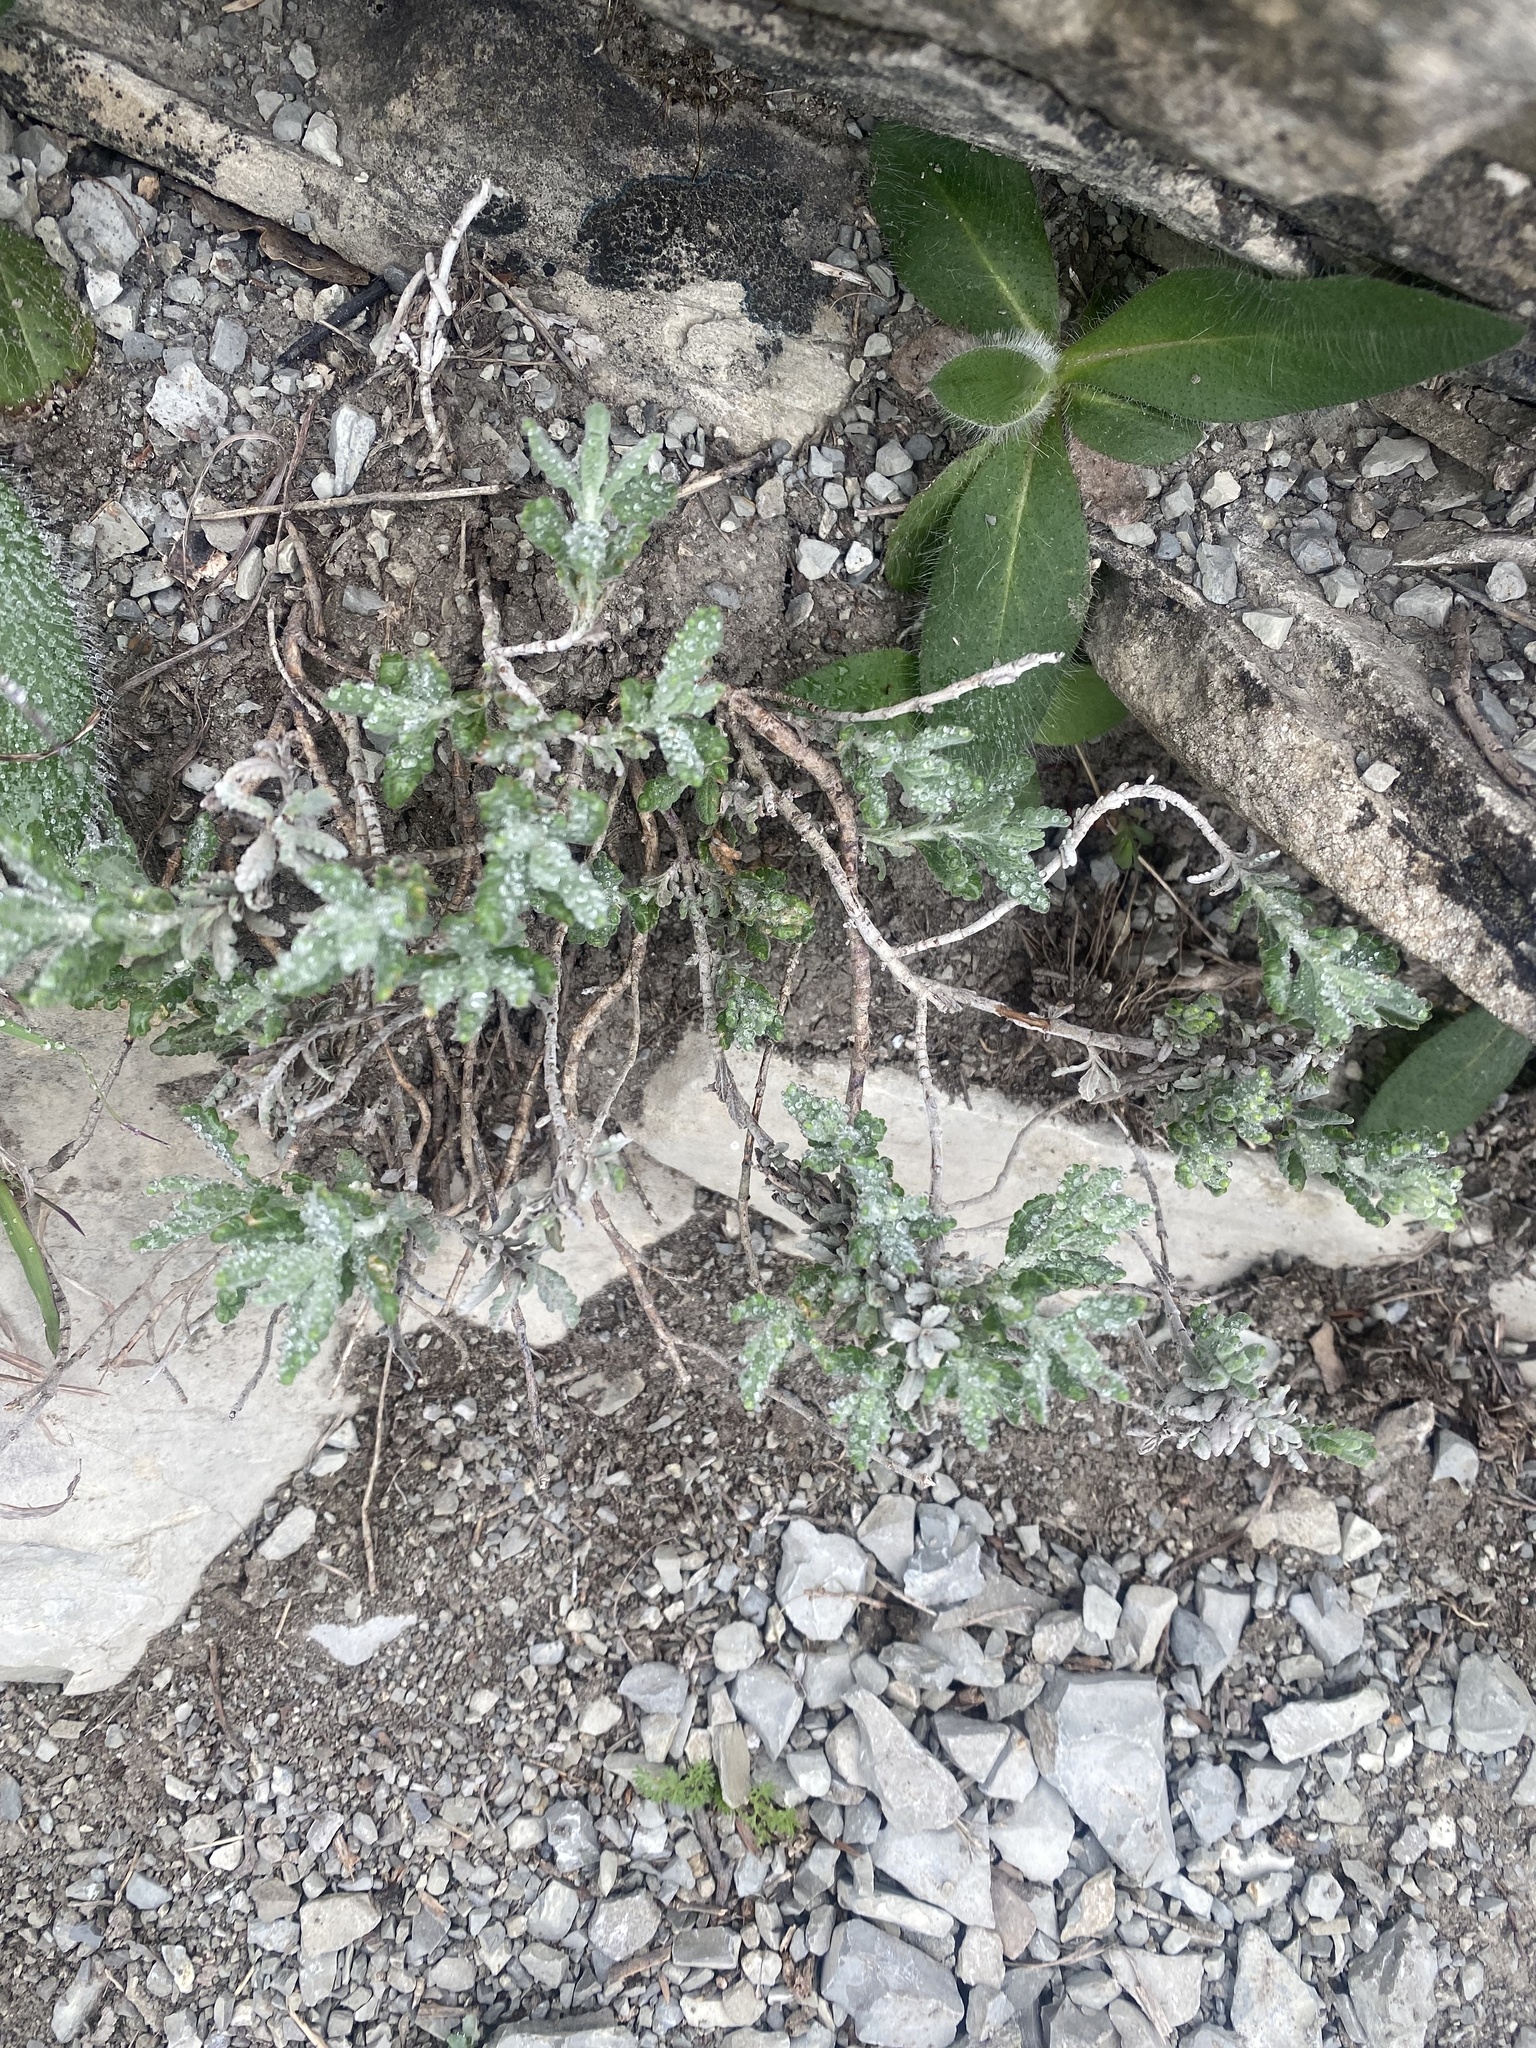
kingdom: Plantae
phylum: Tracheophyta
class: Magnoliopsida
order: Lamiales
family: Lamiaceae
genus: Teucrium
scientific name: Teucrium polium
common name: Poley
